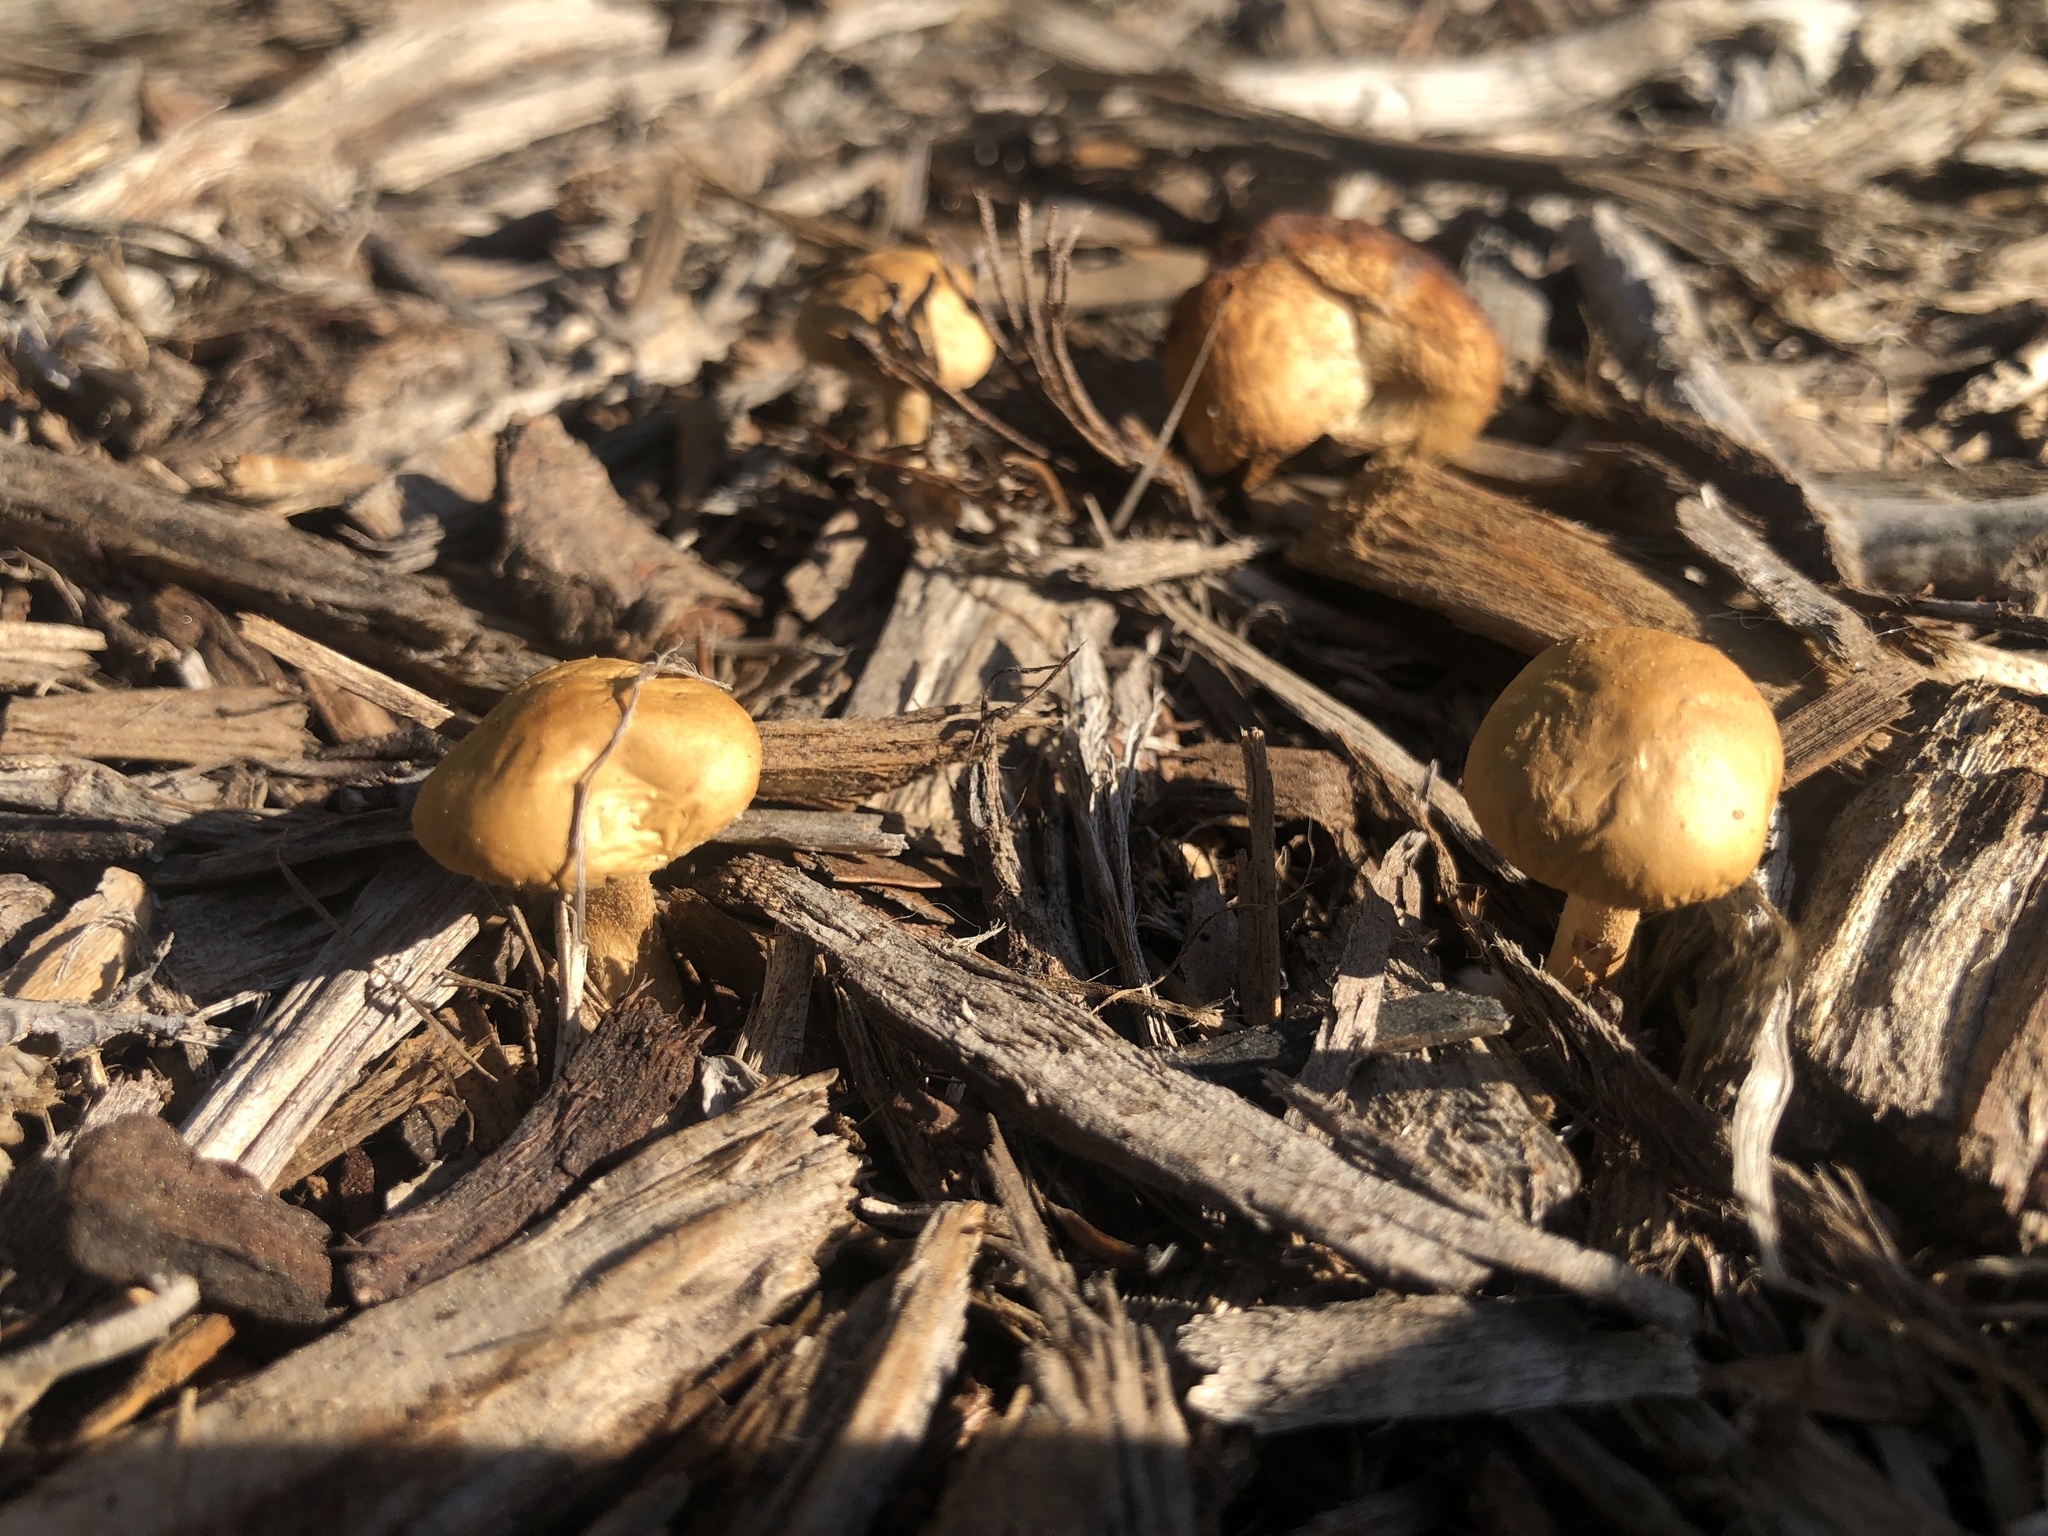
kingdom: Fungi
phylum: Basidiomycota
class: Agaricomycetes
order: Agaricales
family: Strophariaceae
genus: Agrocybe
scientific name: Agrocybe pediades
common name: Common fieldcap
